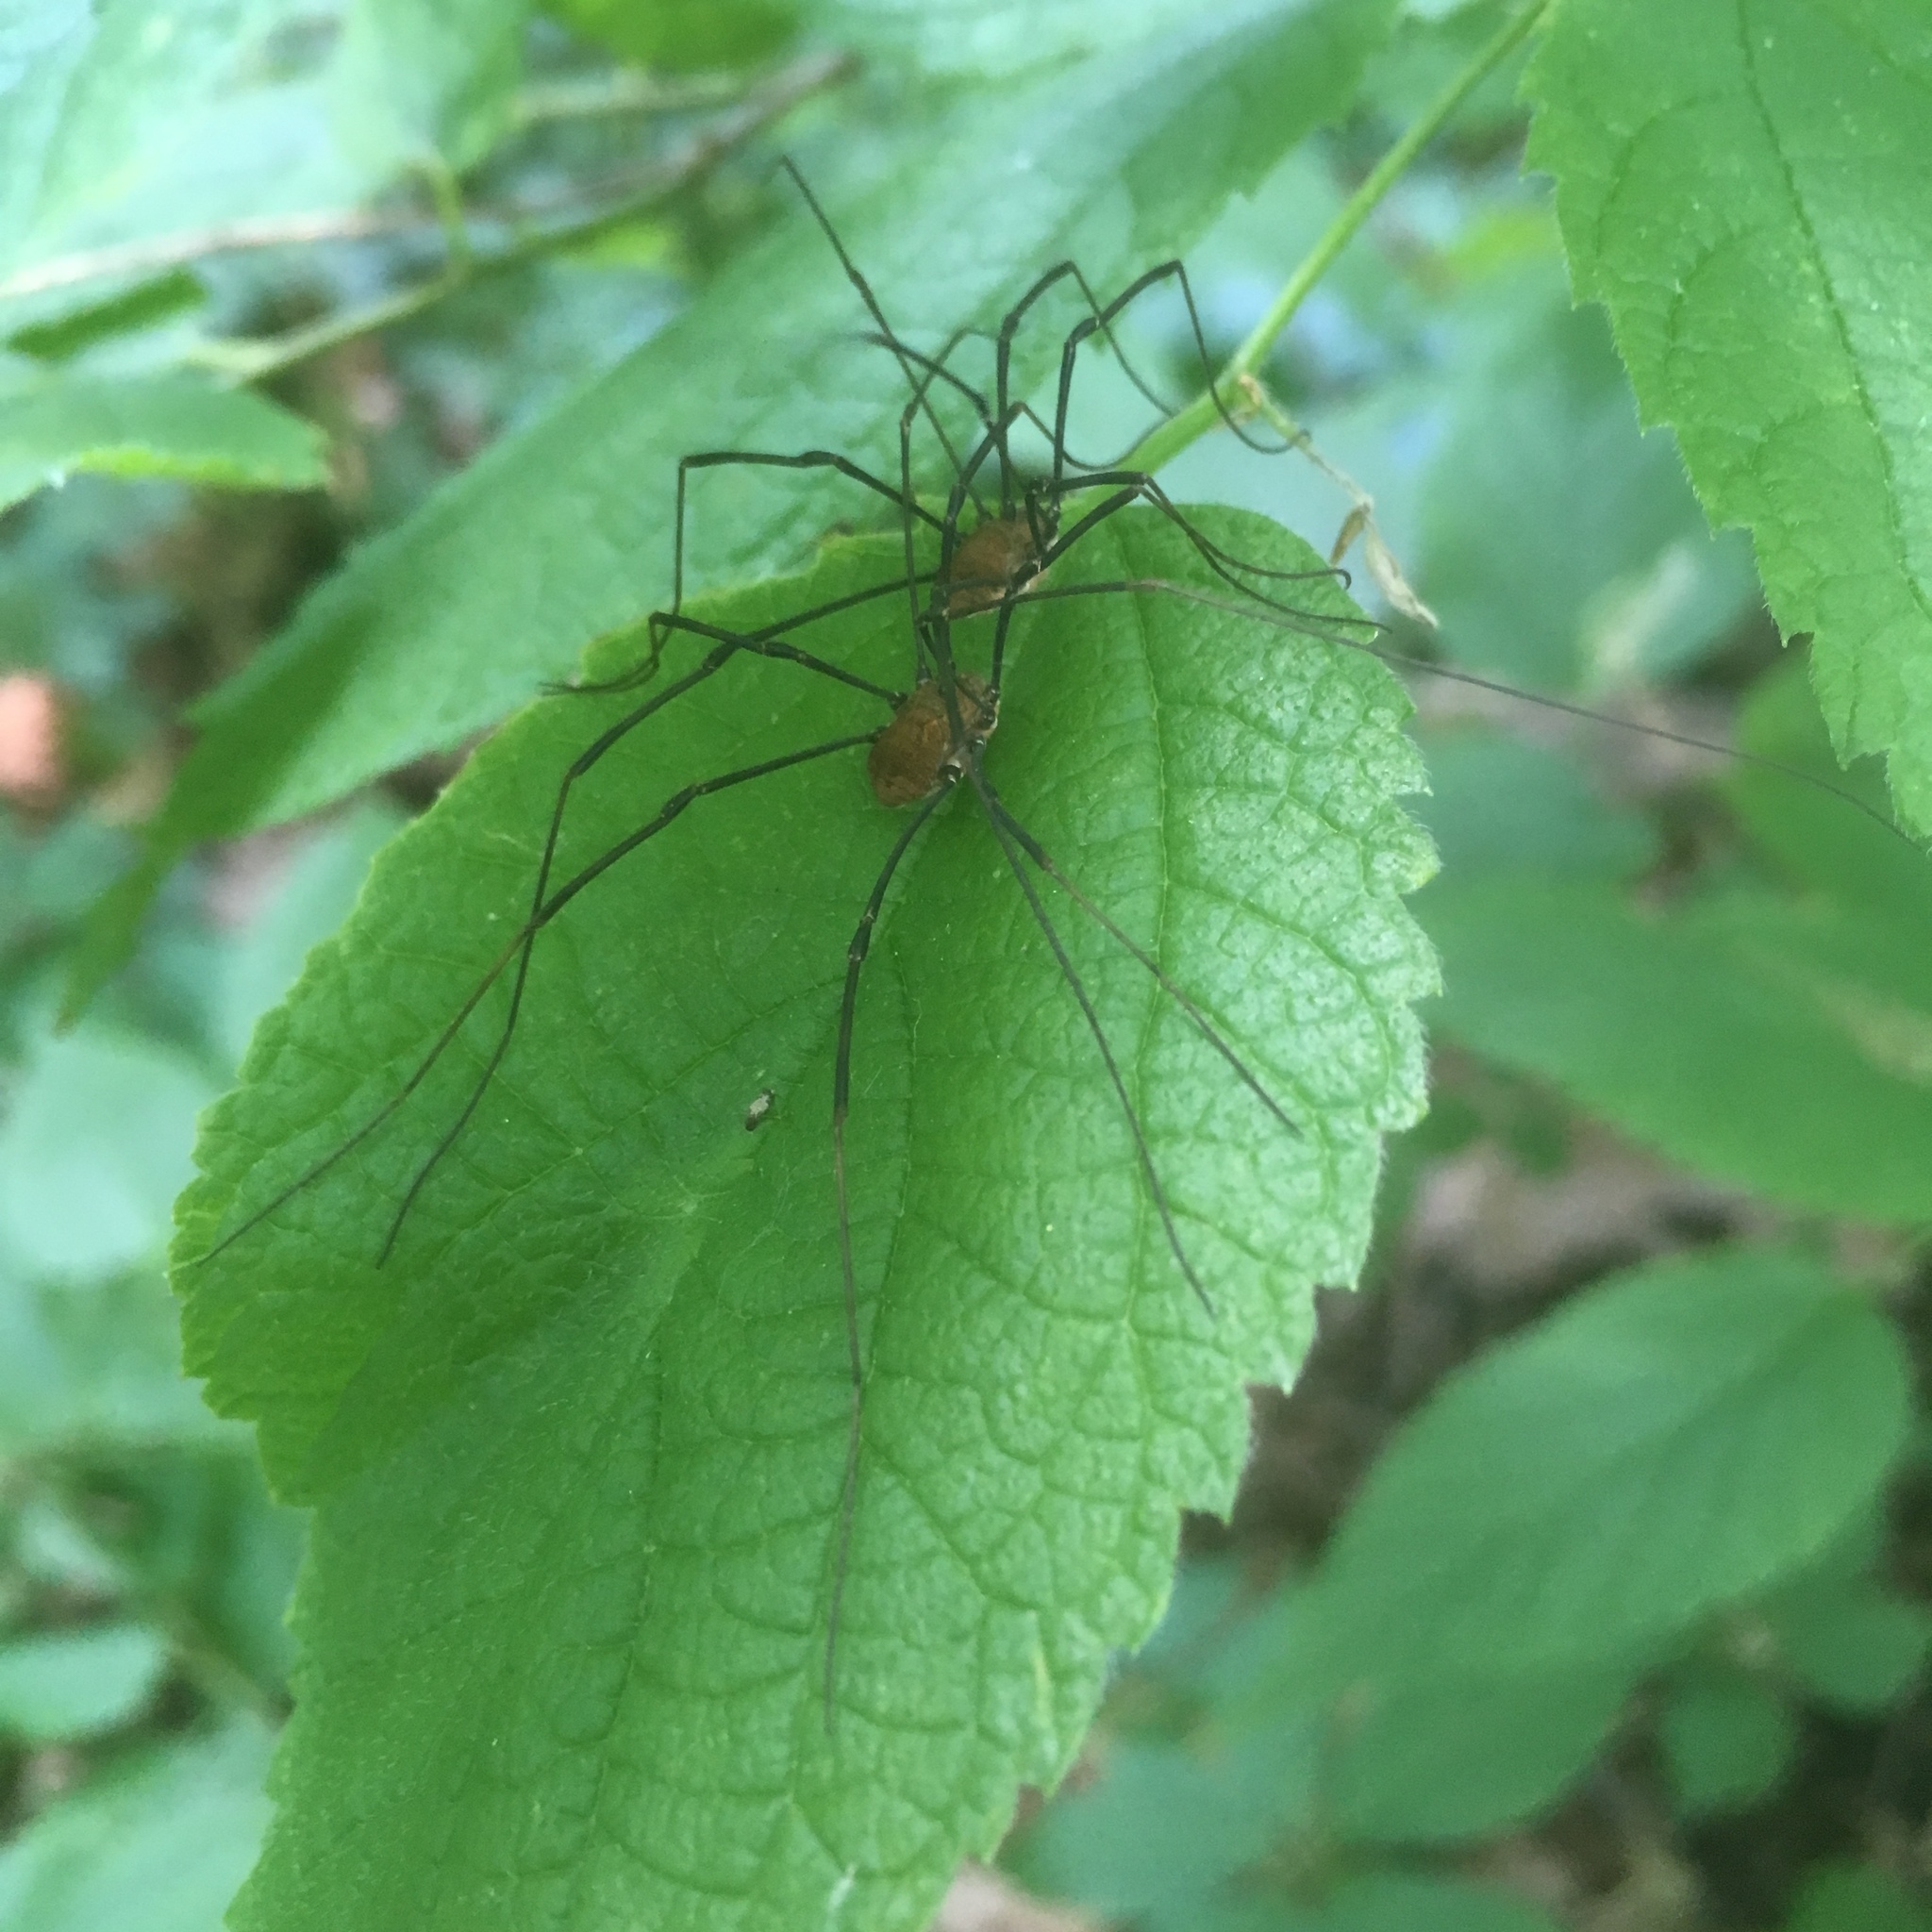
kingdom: Animalia
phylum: Arthropoda
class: Arachnida
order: Opiliones
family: Sclerosomatidae
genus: Leiobunum
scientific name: Leiobunum verrucosum
